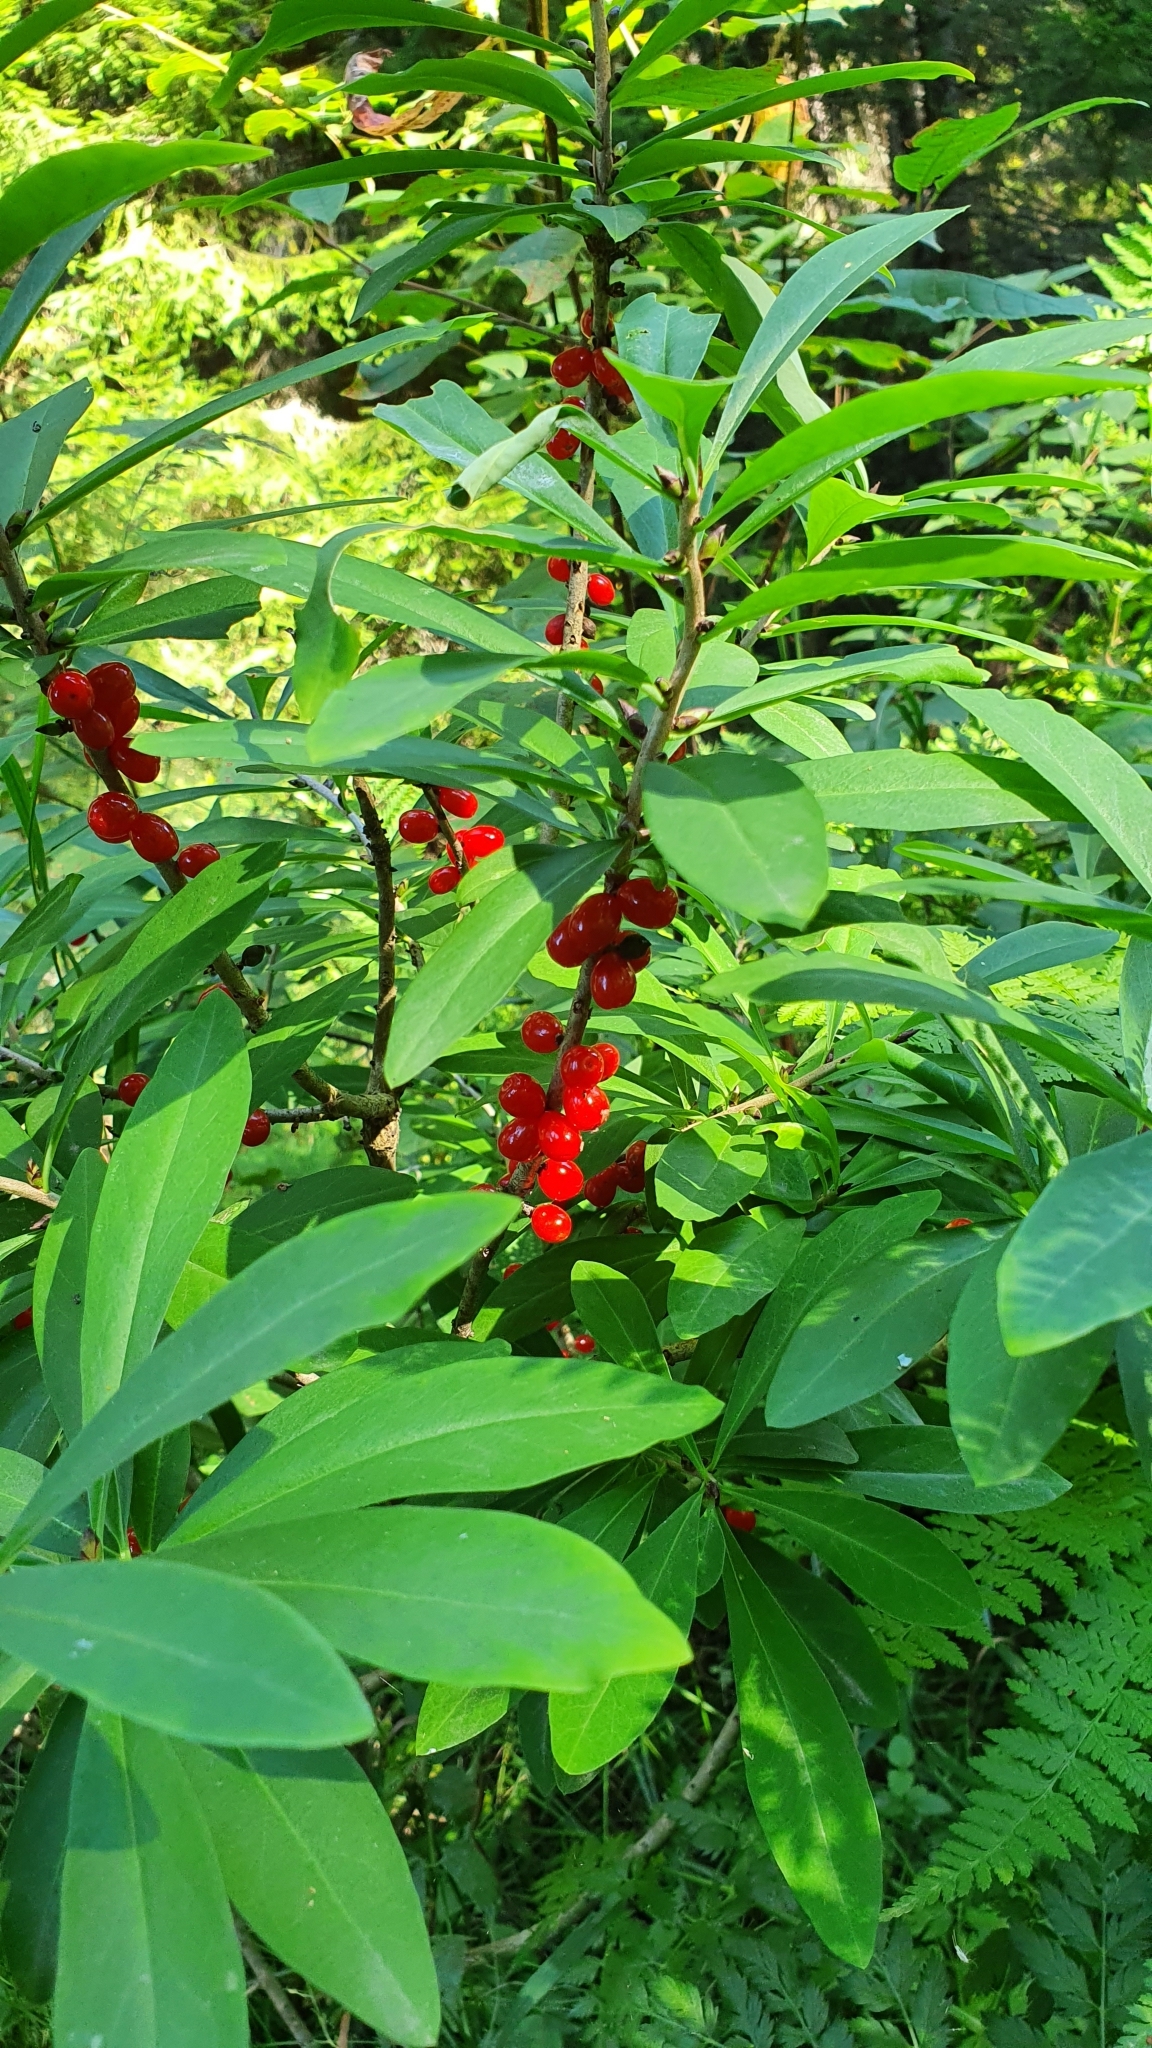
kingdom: Plantae
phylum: Tracheophyta
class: Magnoliopsida
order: Malvales
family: Thymelaeaceae
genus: Daphne
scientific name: Daphne mezereum
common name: Mezereon
